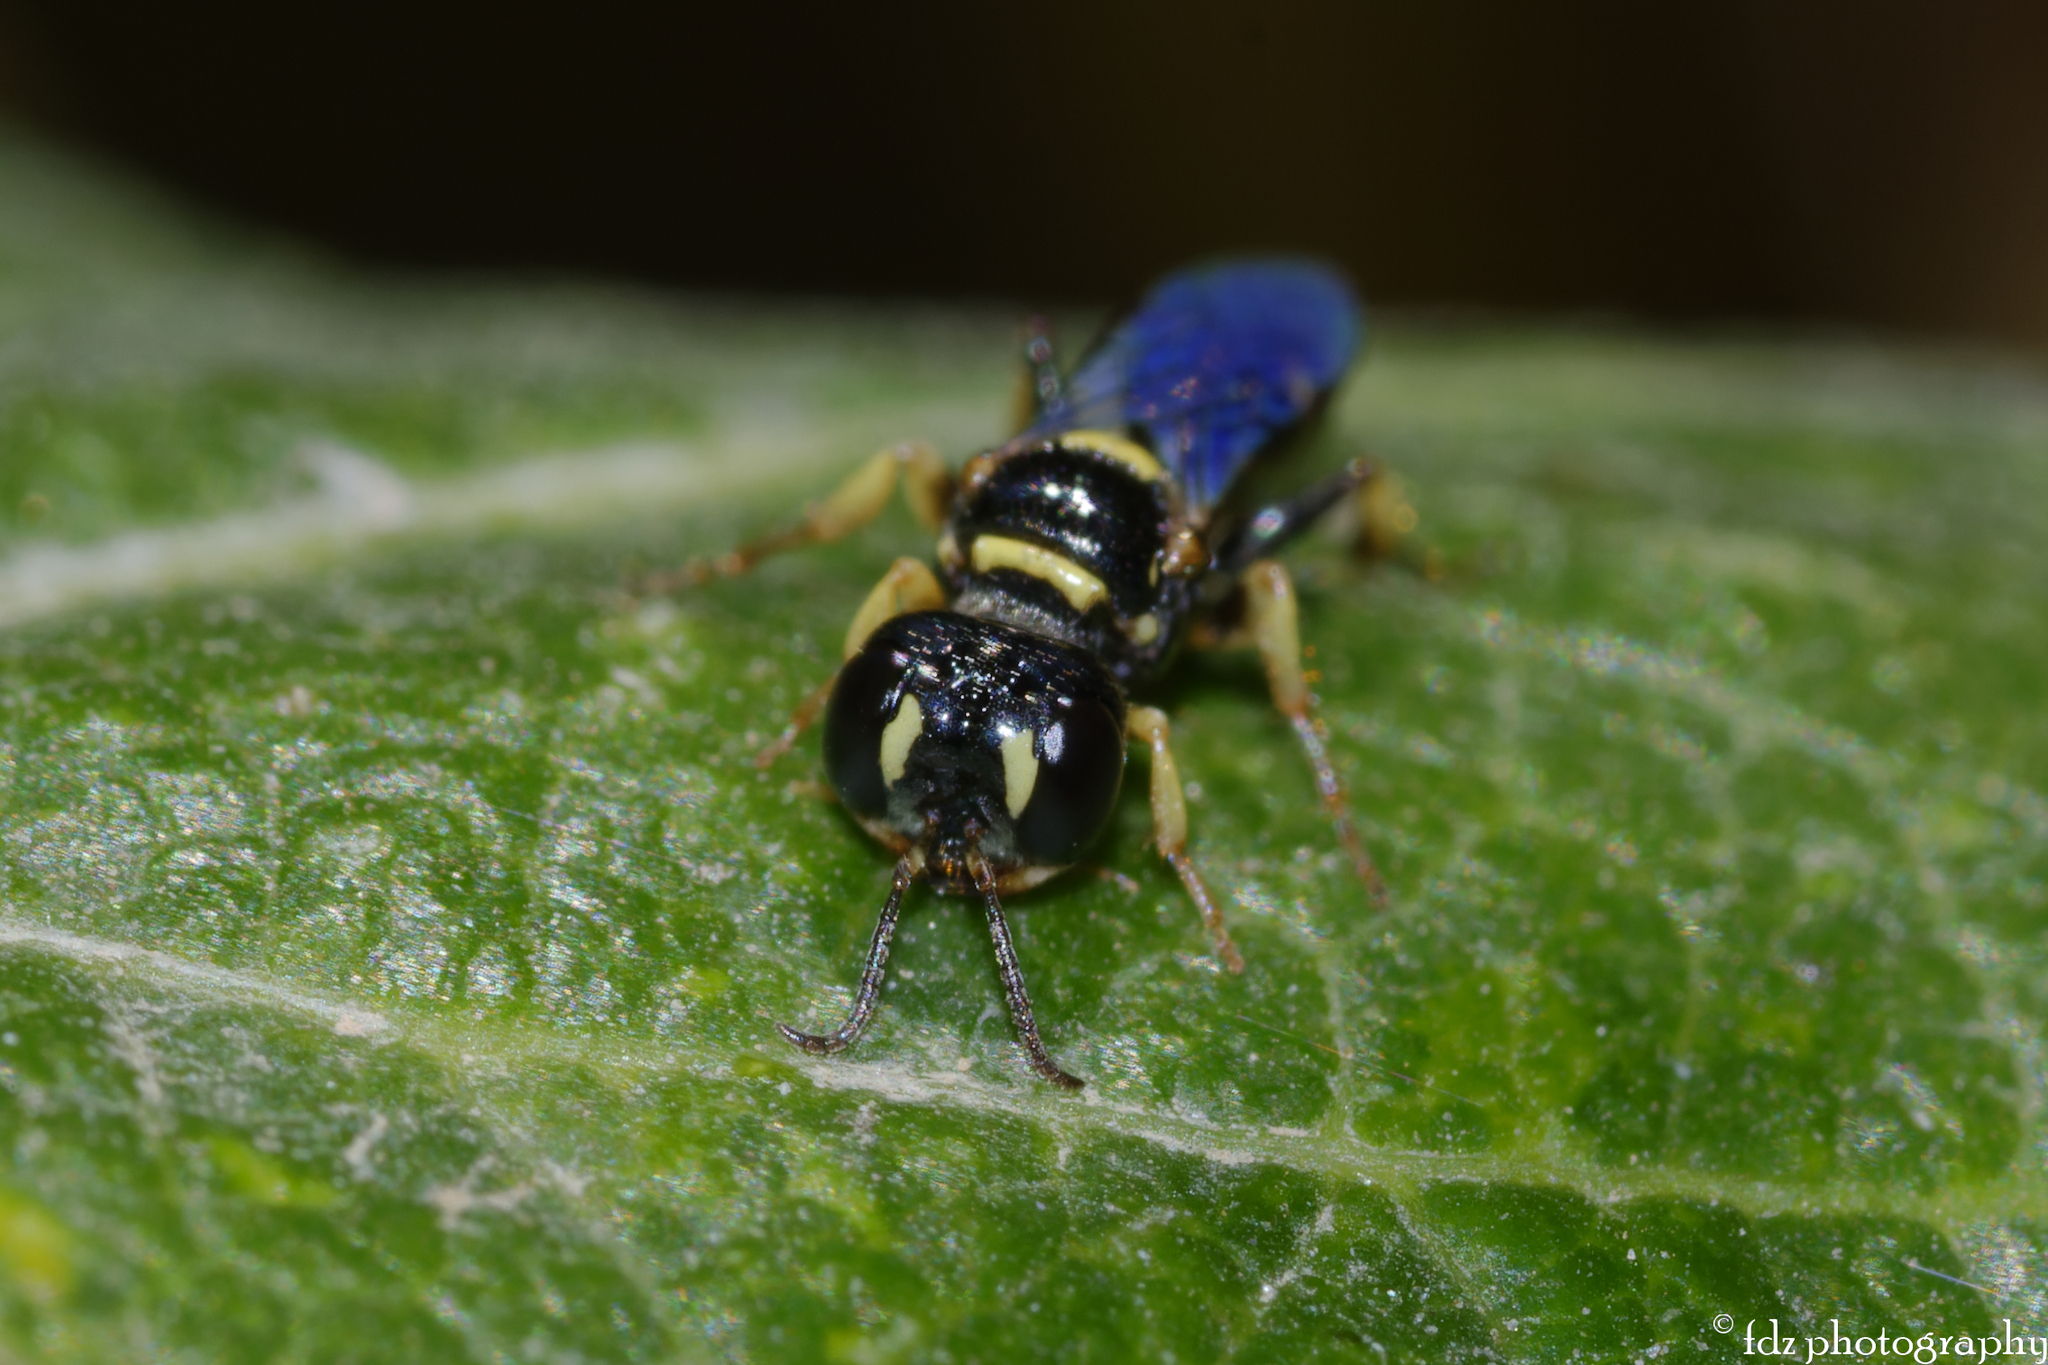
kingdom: Animalia
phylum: Arthropoda
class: Insecta
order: Hymenoptera
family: Crabronidae
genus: Tracheliodes
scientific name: Tracheliodes quinquenotatus
